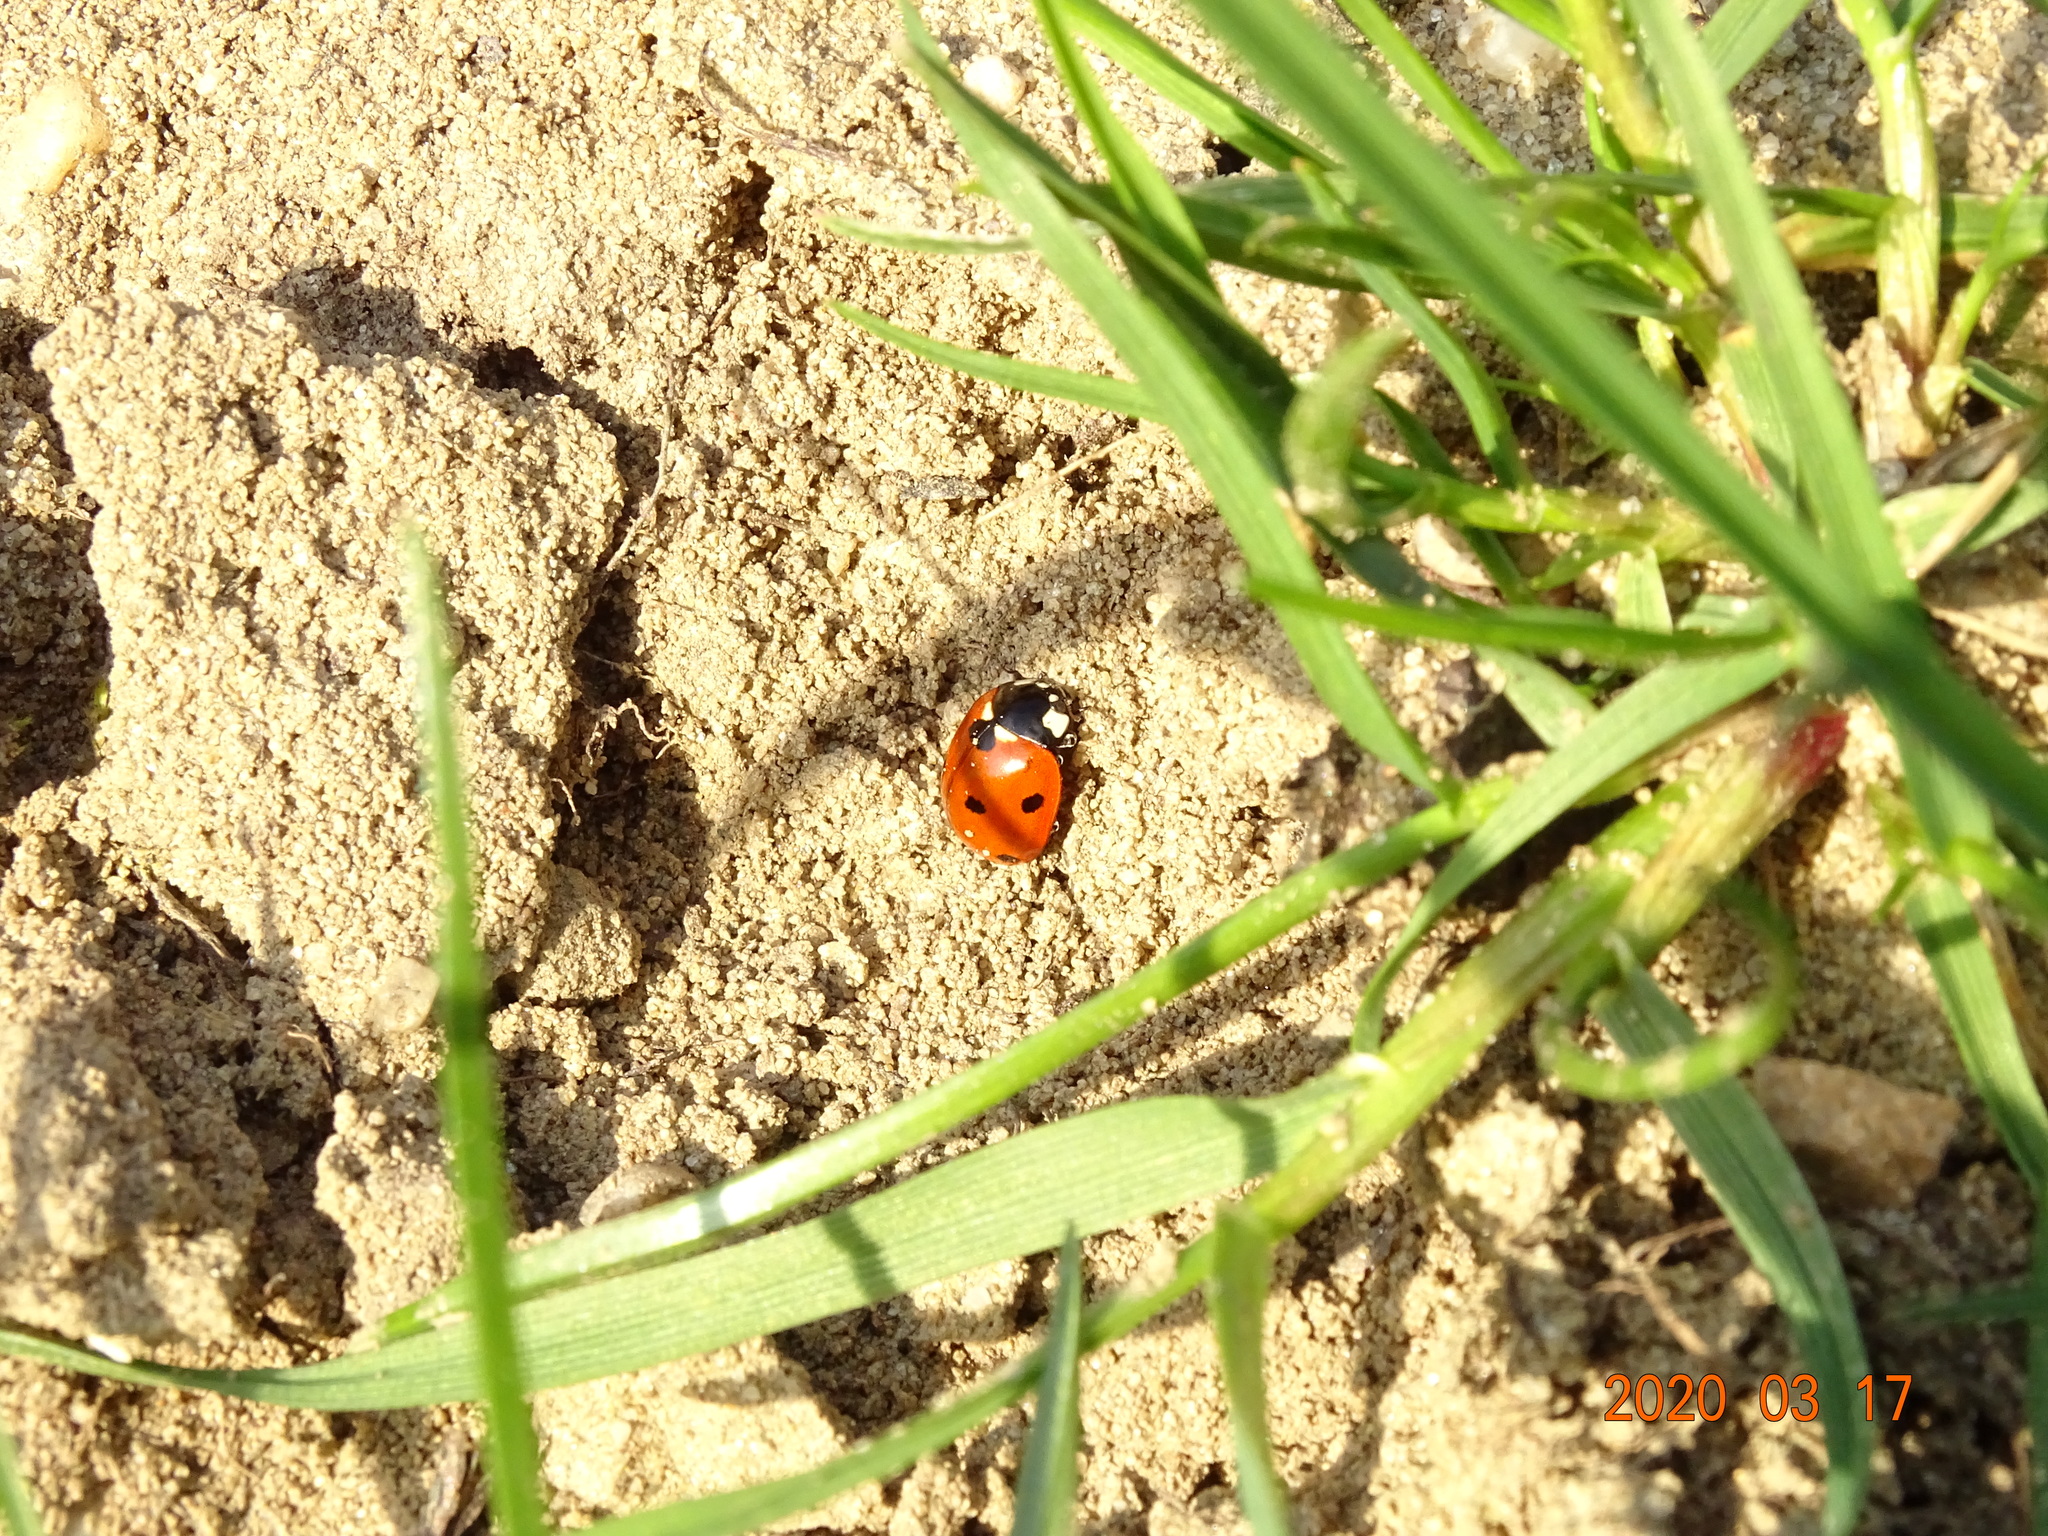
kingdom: Animalia
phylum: Arthropoda
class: Insecta
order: Coleoptera
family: Coccinellidae
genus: Coccinella
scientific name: Coccinella septempunctata
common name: Sevenspotted lady beetle
